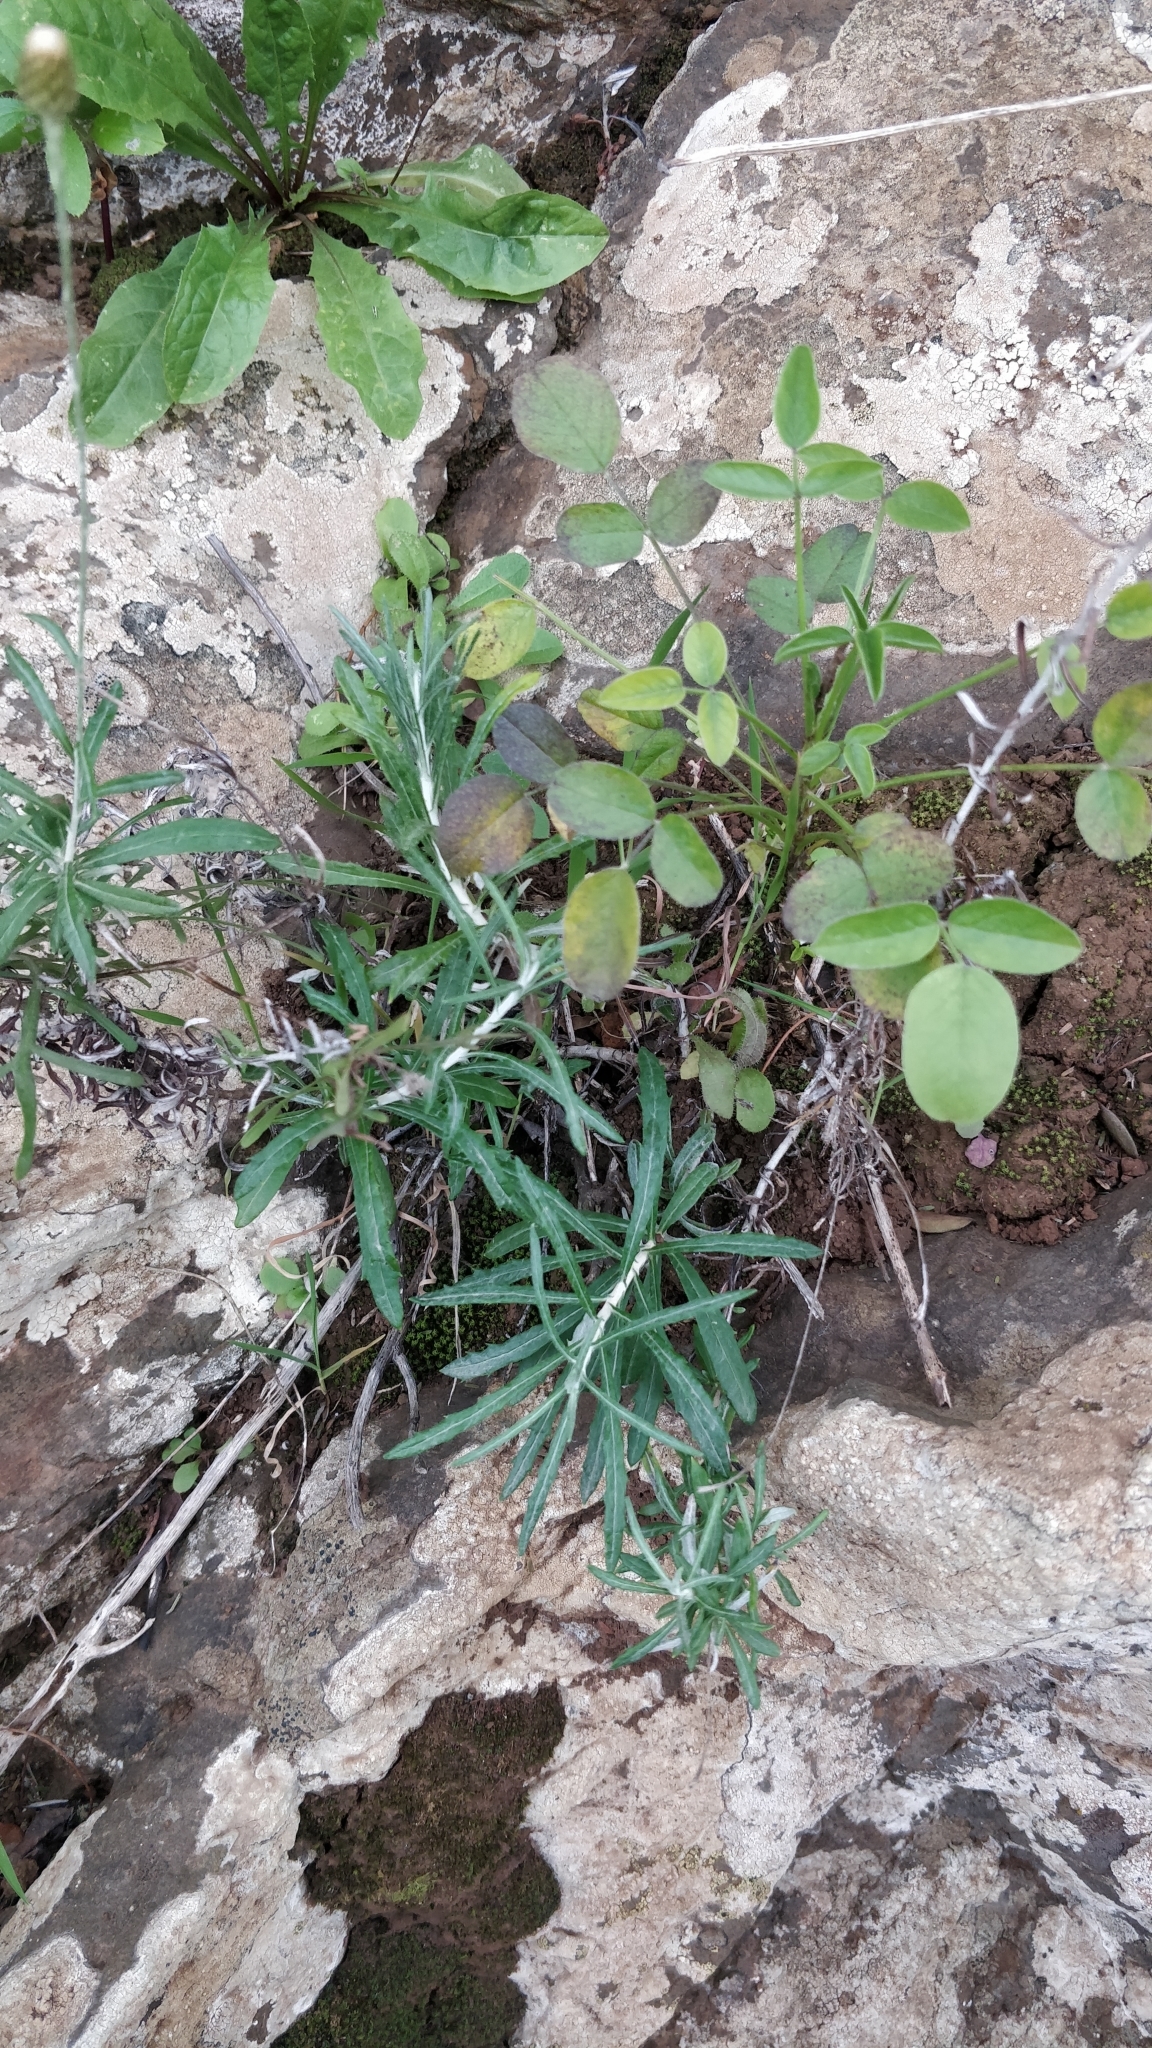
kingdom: Plantae
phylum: Tracheophyta
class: Magnoliopsida
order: Asterales
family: Asteraceae
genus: Phagnalon
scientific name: Phagnalon saxatile
